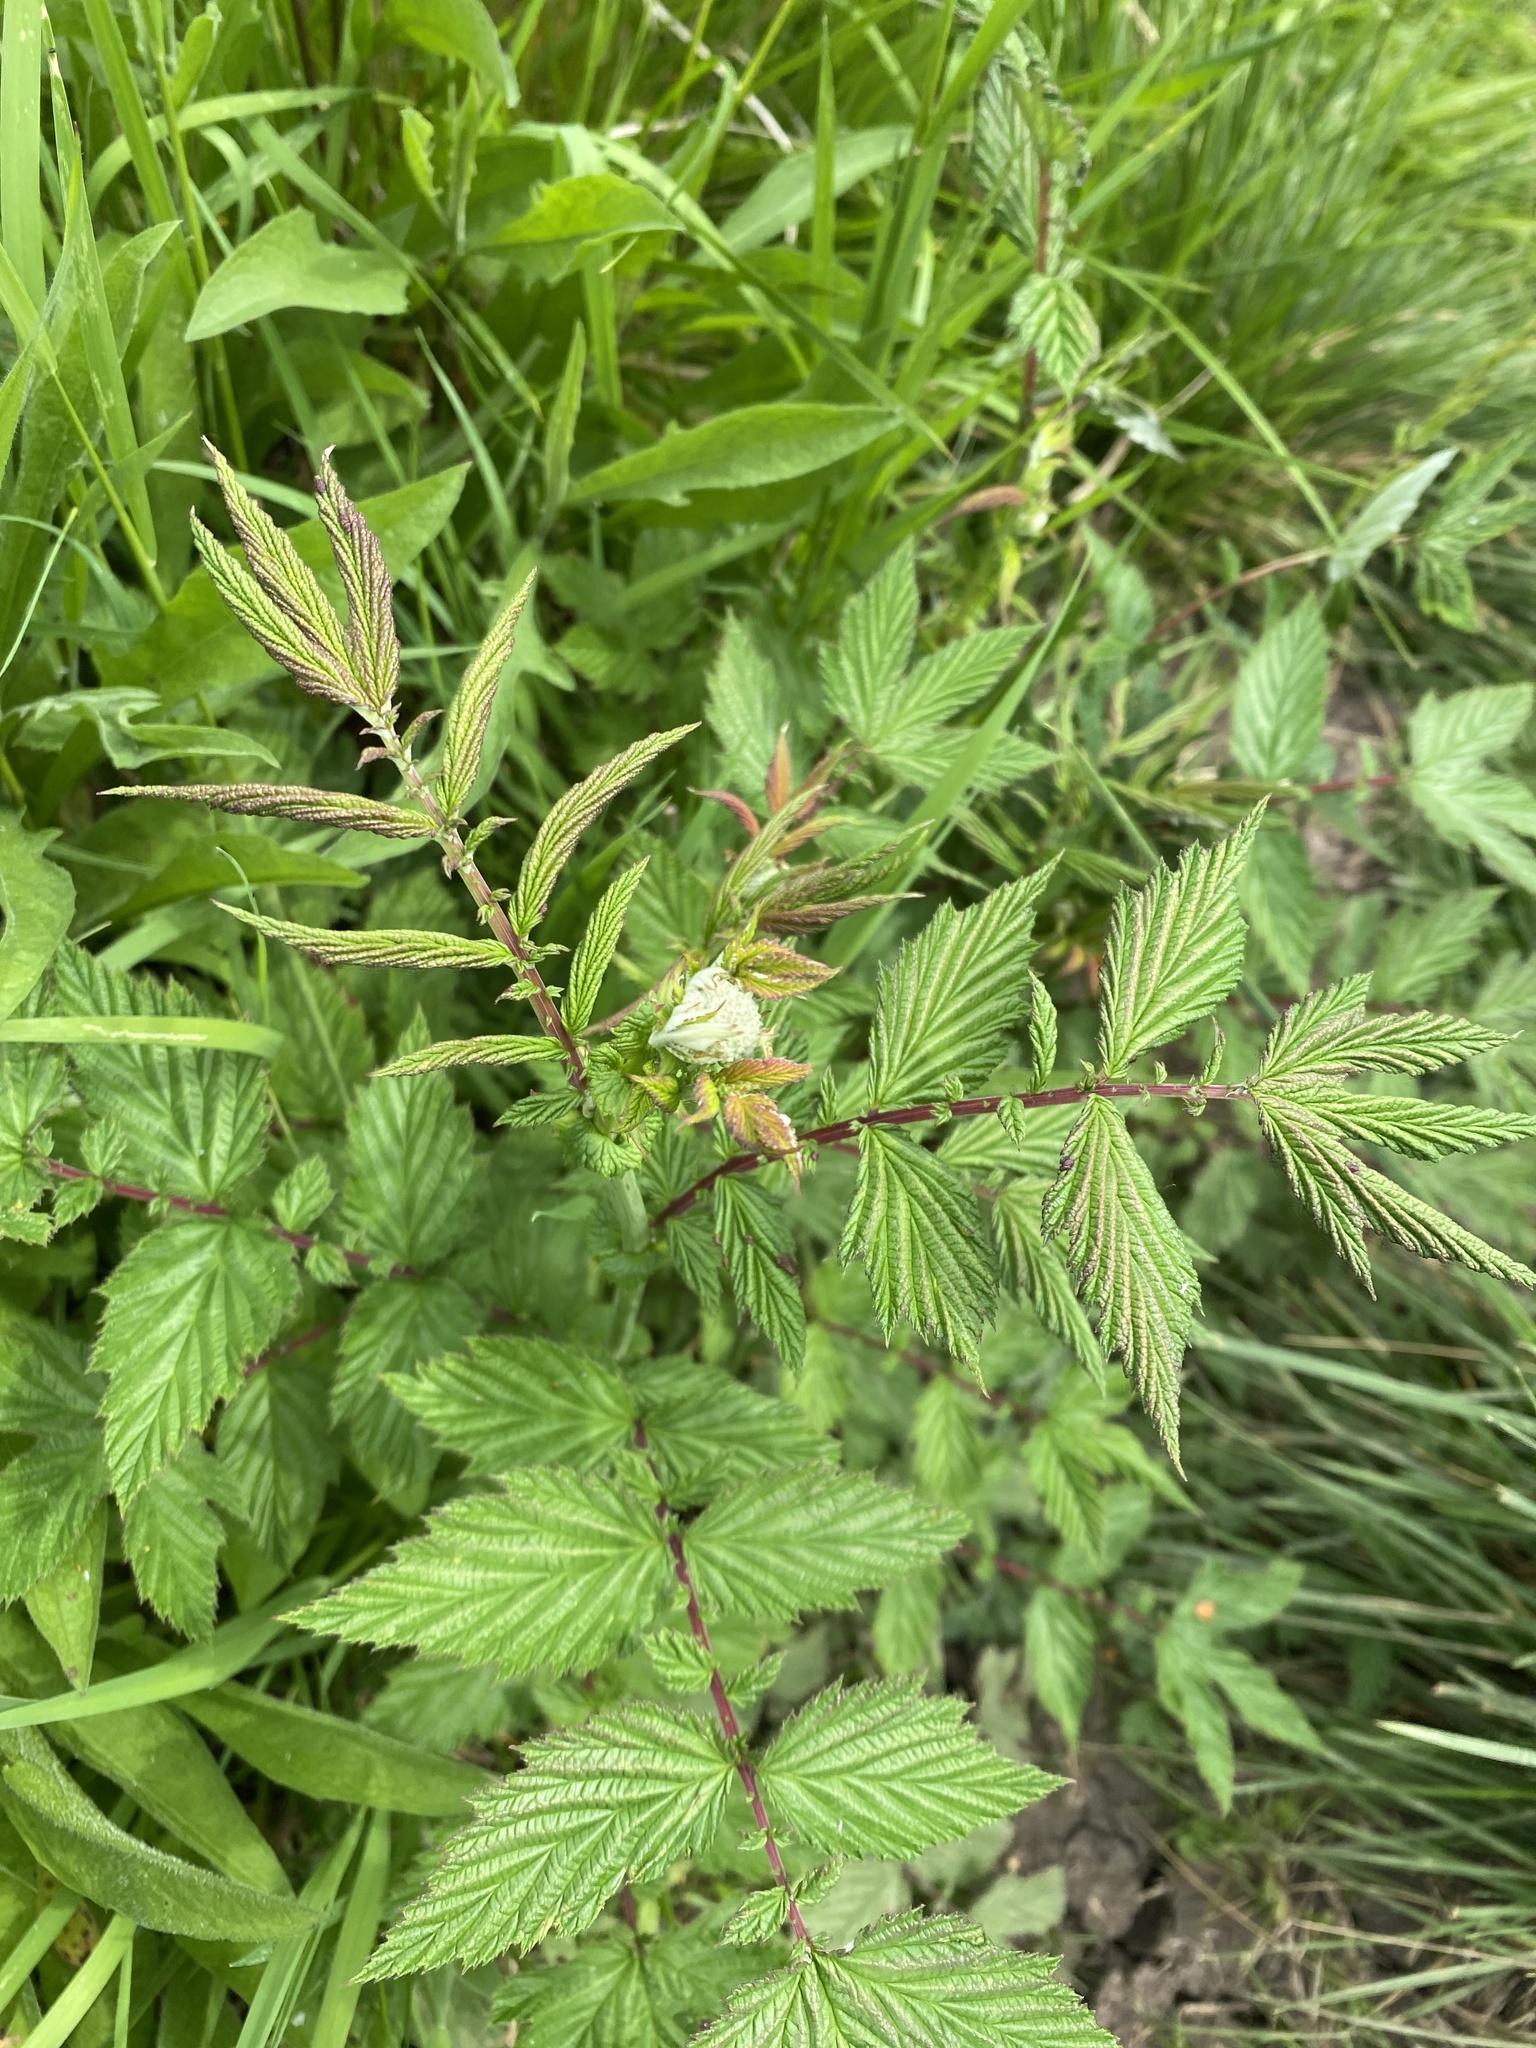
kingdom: Plantae
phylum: Tracheophyta
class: Magnoliopsida
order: Rosales
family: Rosaceae
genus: Filipendula
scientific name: Filipendula ulmaria
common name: Meadowsweet
